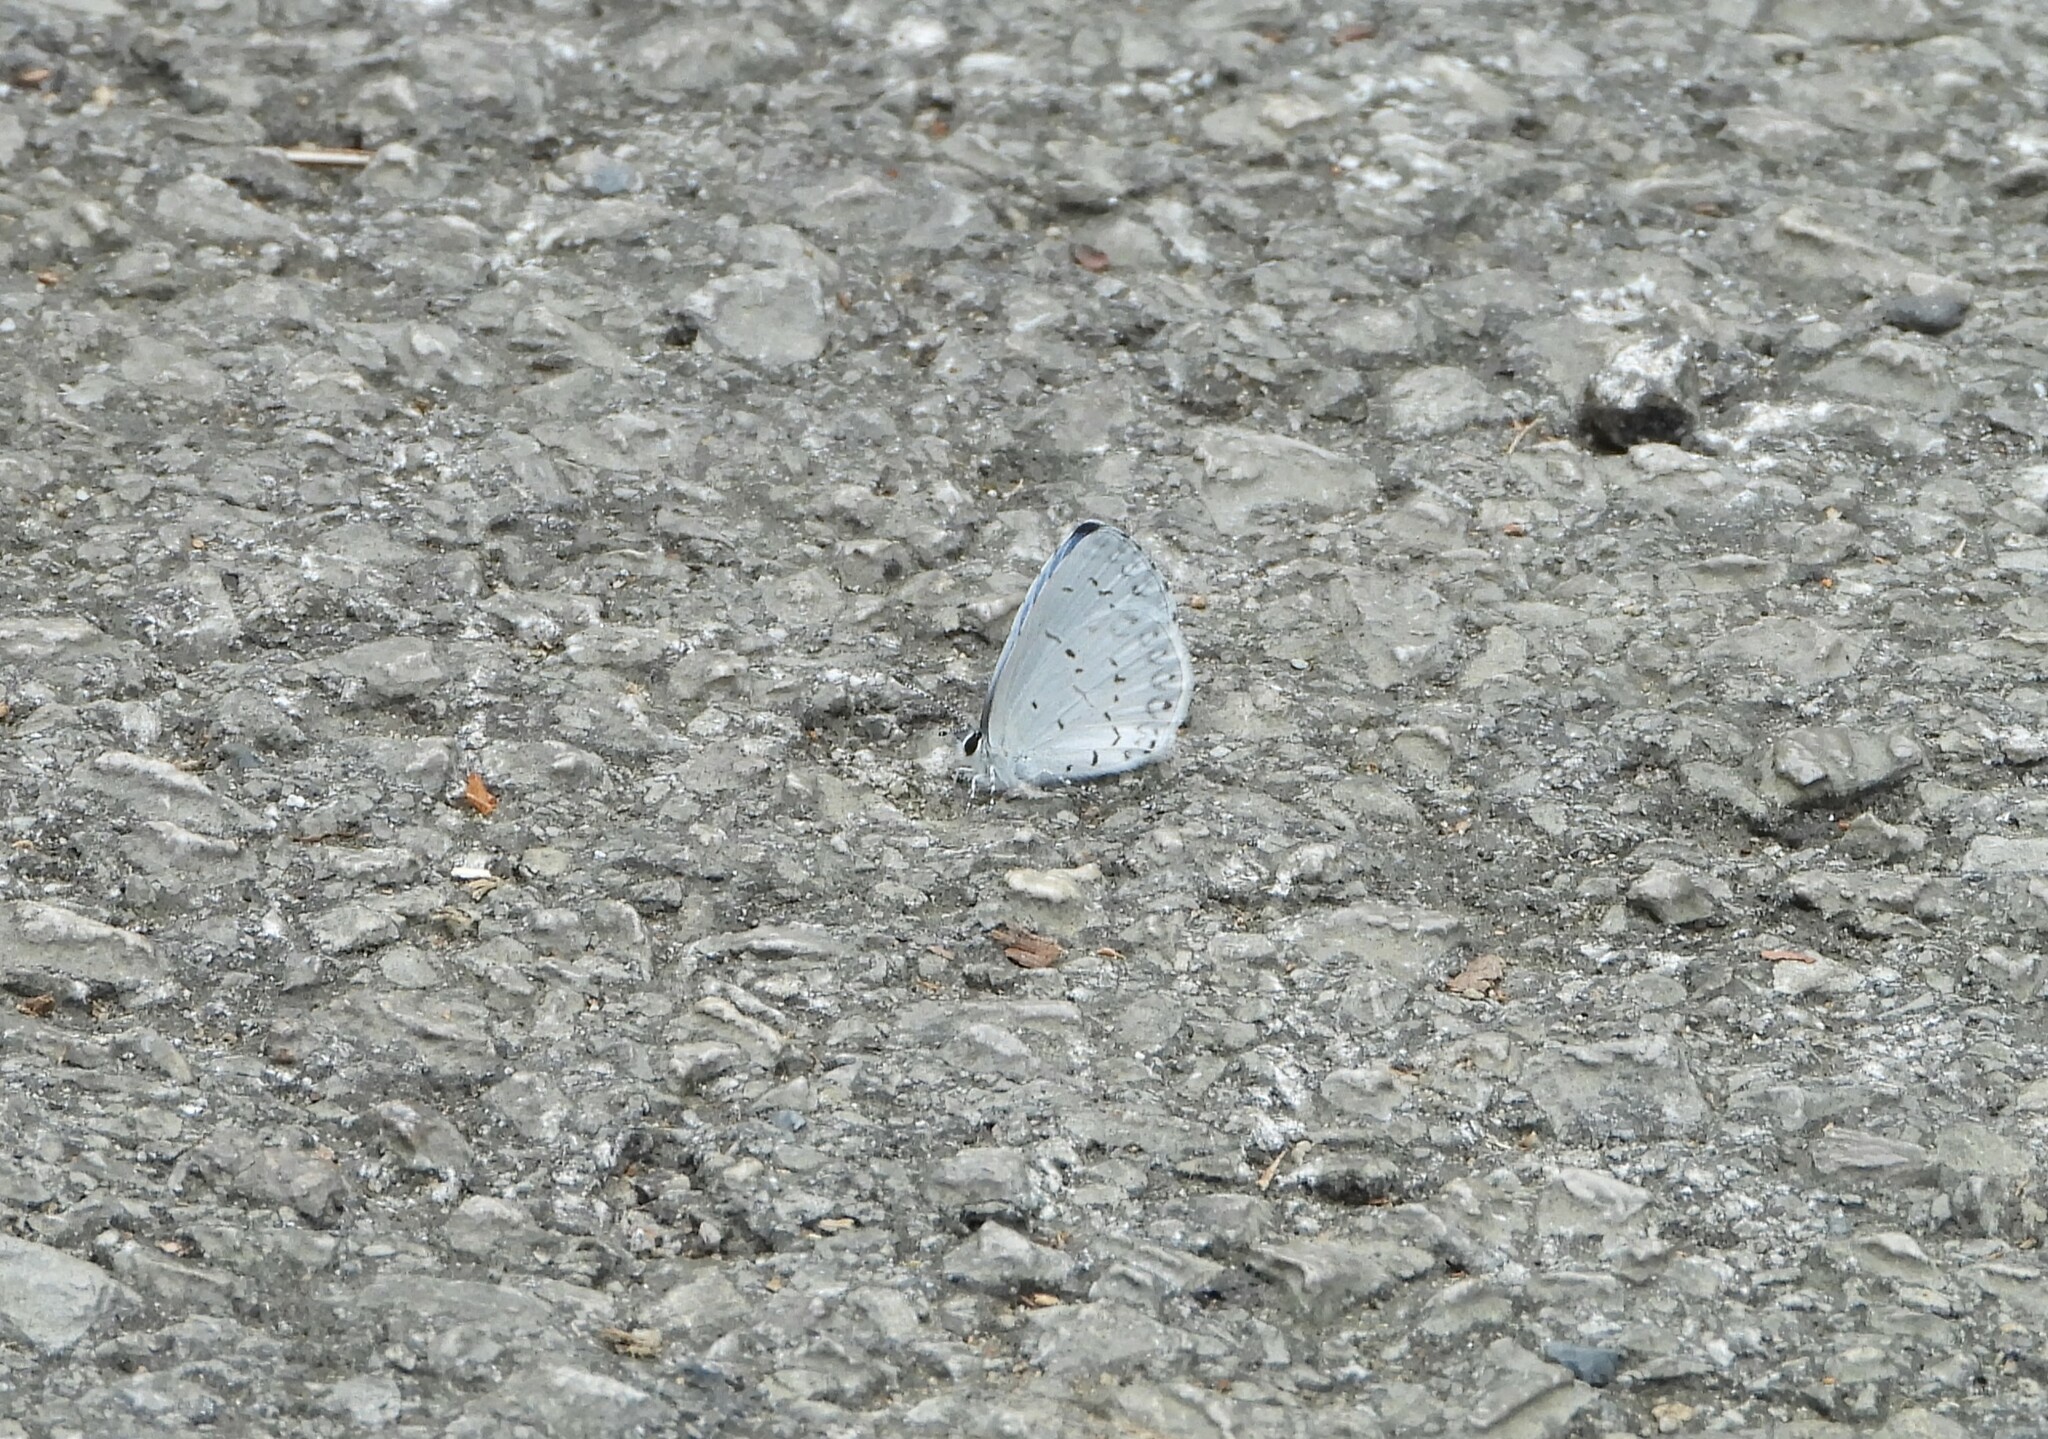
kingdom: Animalia
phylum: Arthropoda
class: Insecta
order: Lepidoptera
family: Lycaenidae
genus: Cyaniris
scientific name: Cyaniris neglecta
